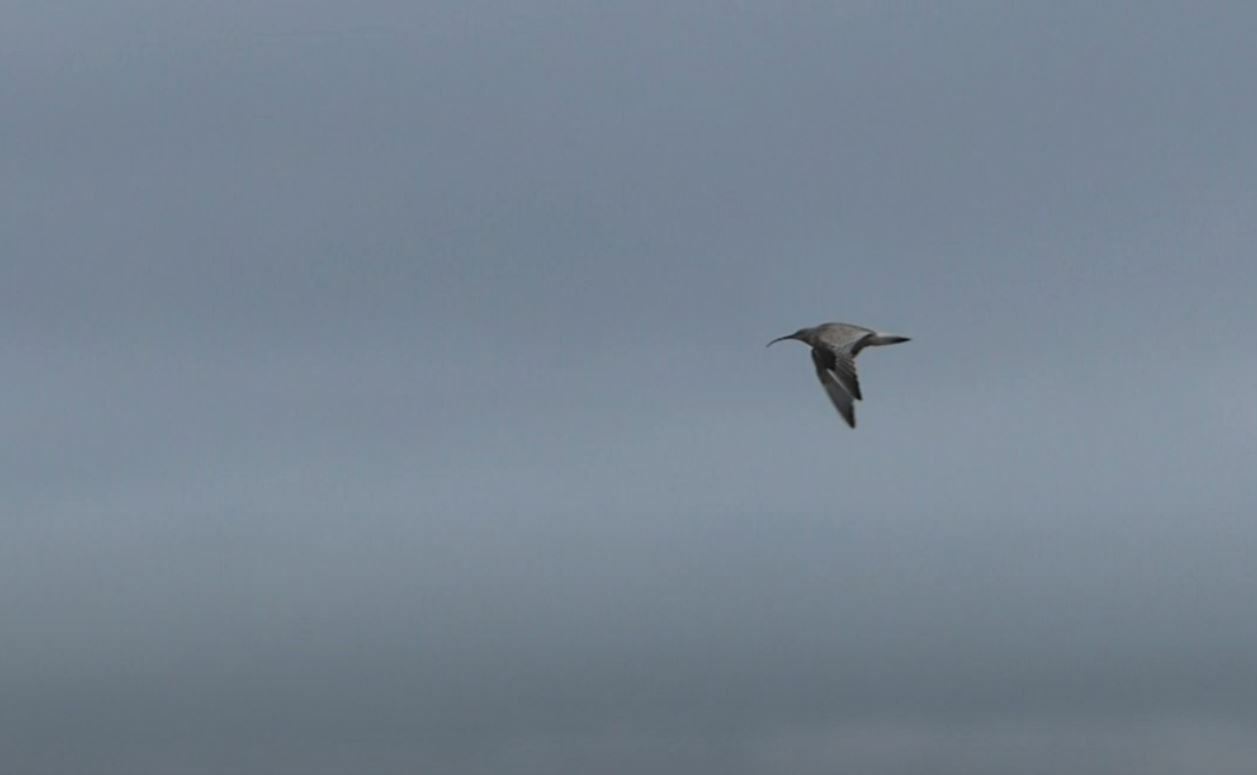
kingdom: Animalia
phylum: Chordata
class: Aves
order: Charadriiformes
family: Scolopacidae
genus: Numenius
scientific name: Numenius arquata
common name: Eurasian curlew
